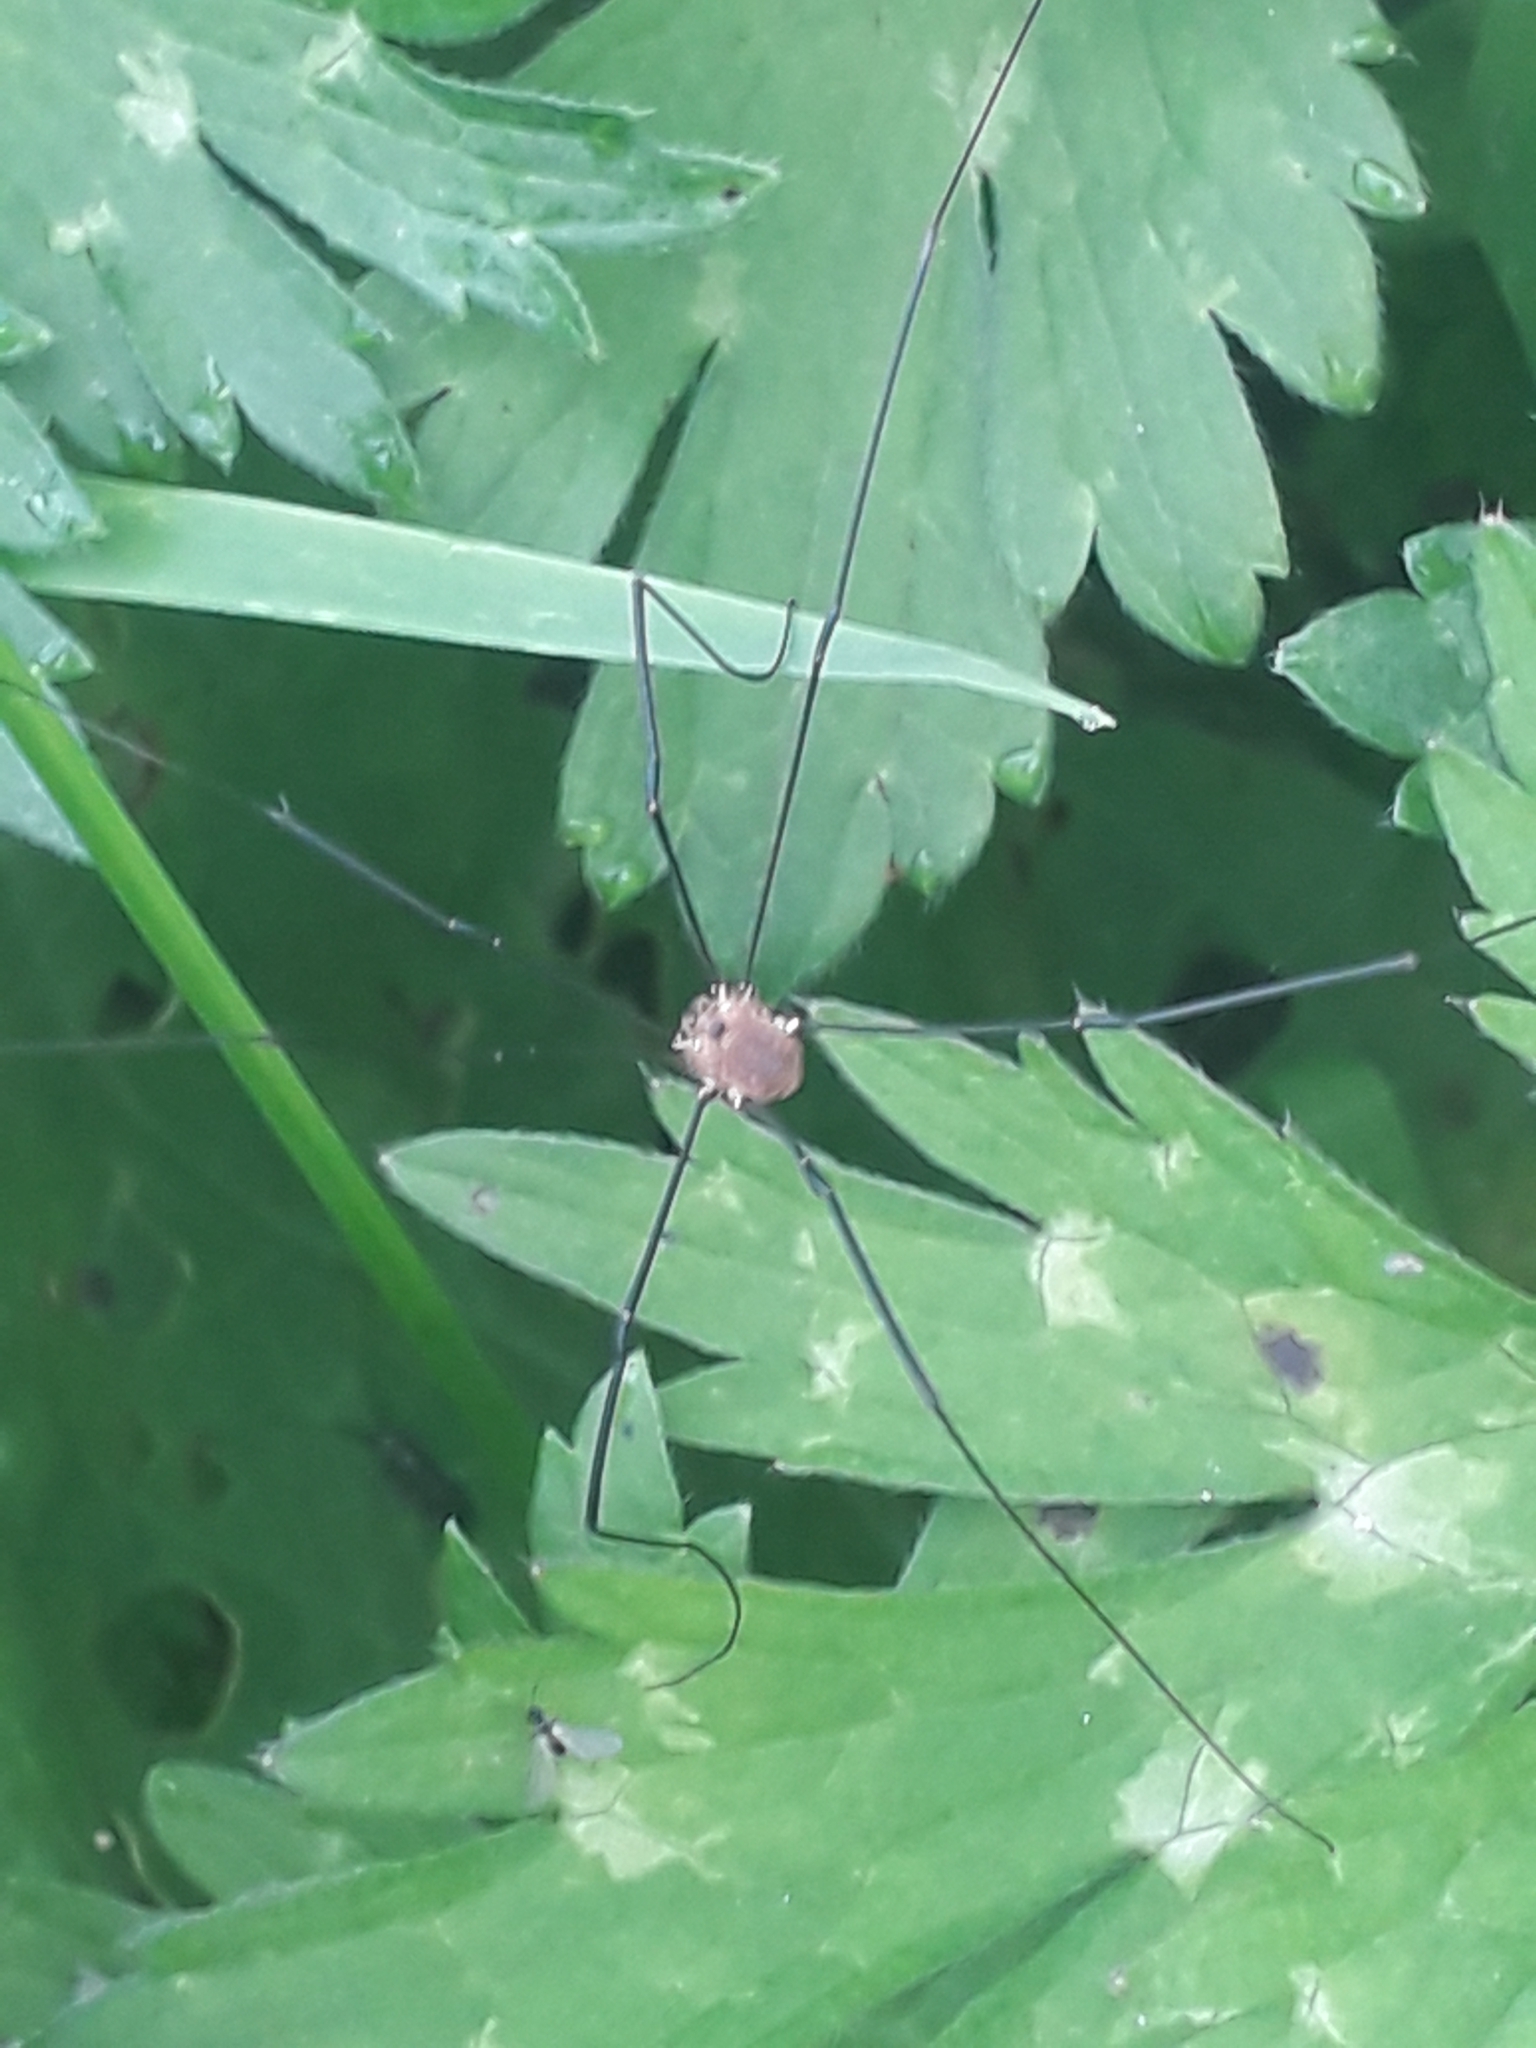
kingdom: Animalia
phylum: Arthropoda
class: Arachnida
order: Opiliones
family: Sclerosomatidae
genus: Leiobunum
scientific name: Leiobunum rotundum
